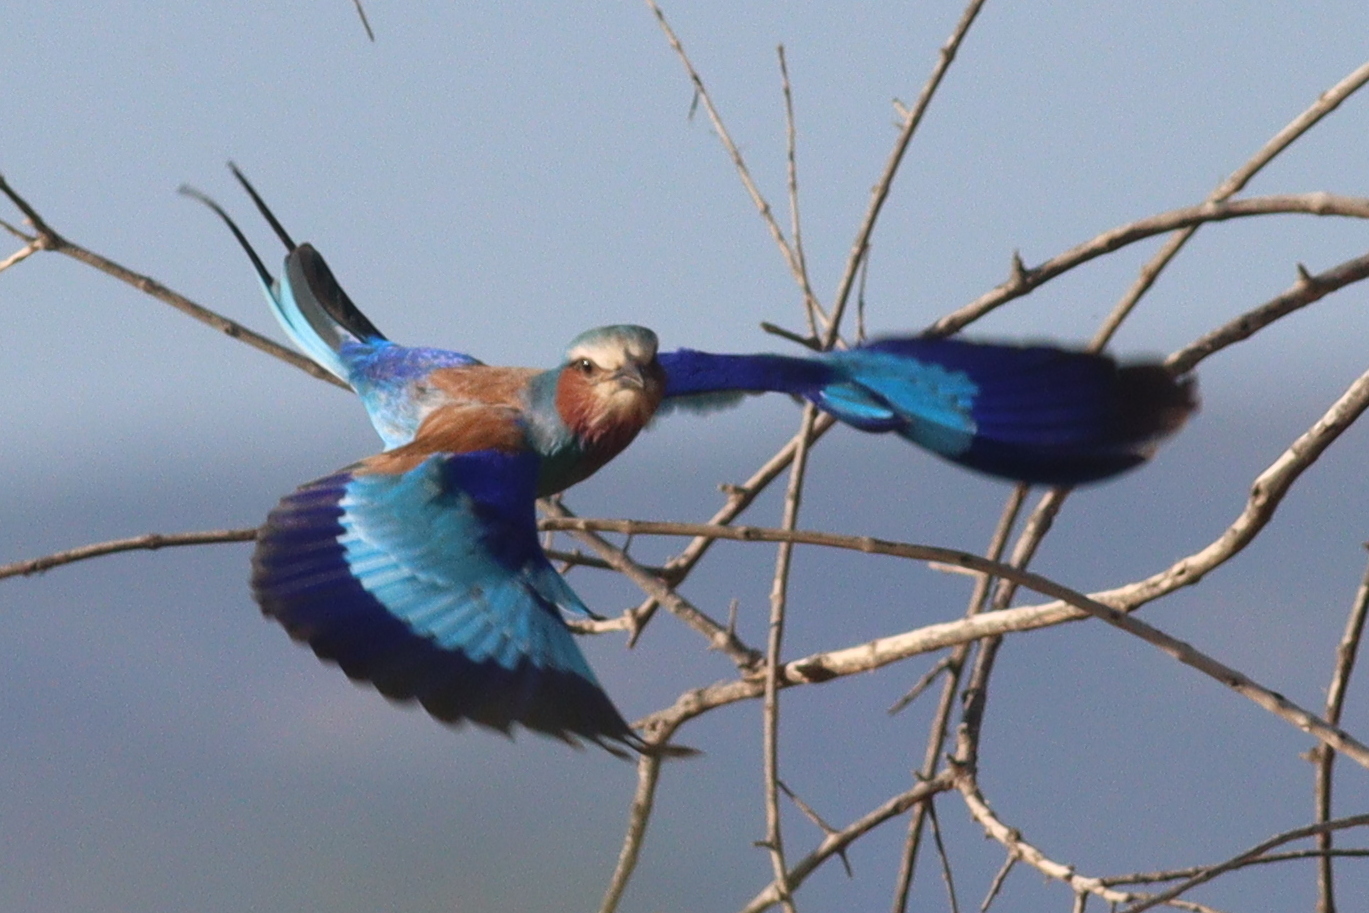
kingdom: Animalia
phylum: Chordata
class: Aves
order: Coraciiformes
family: Coraciidae
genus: Coracias
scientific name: Coracias caudatus
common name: Lilac-breasted roller
